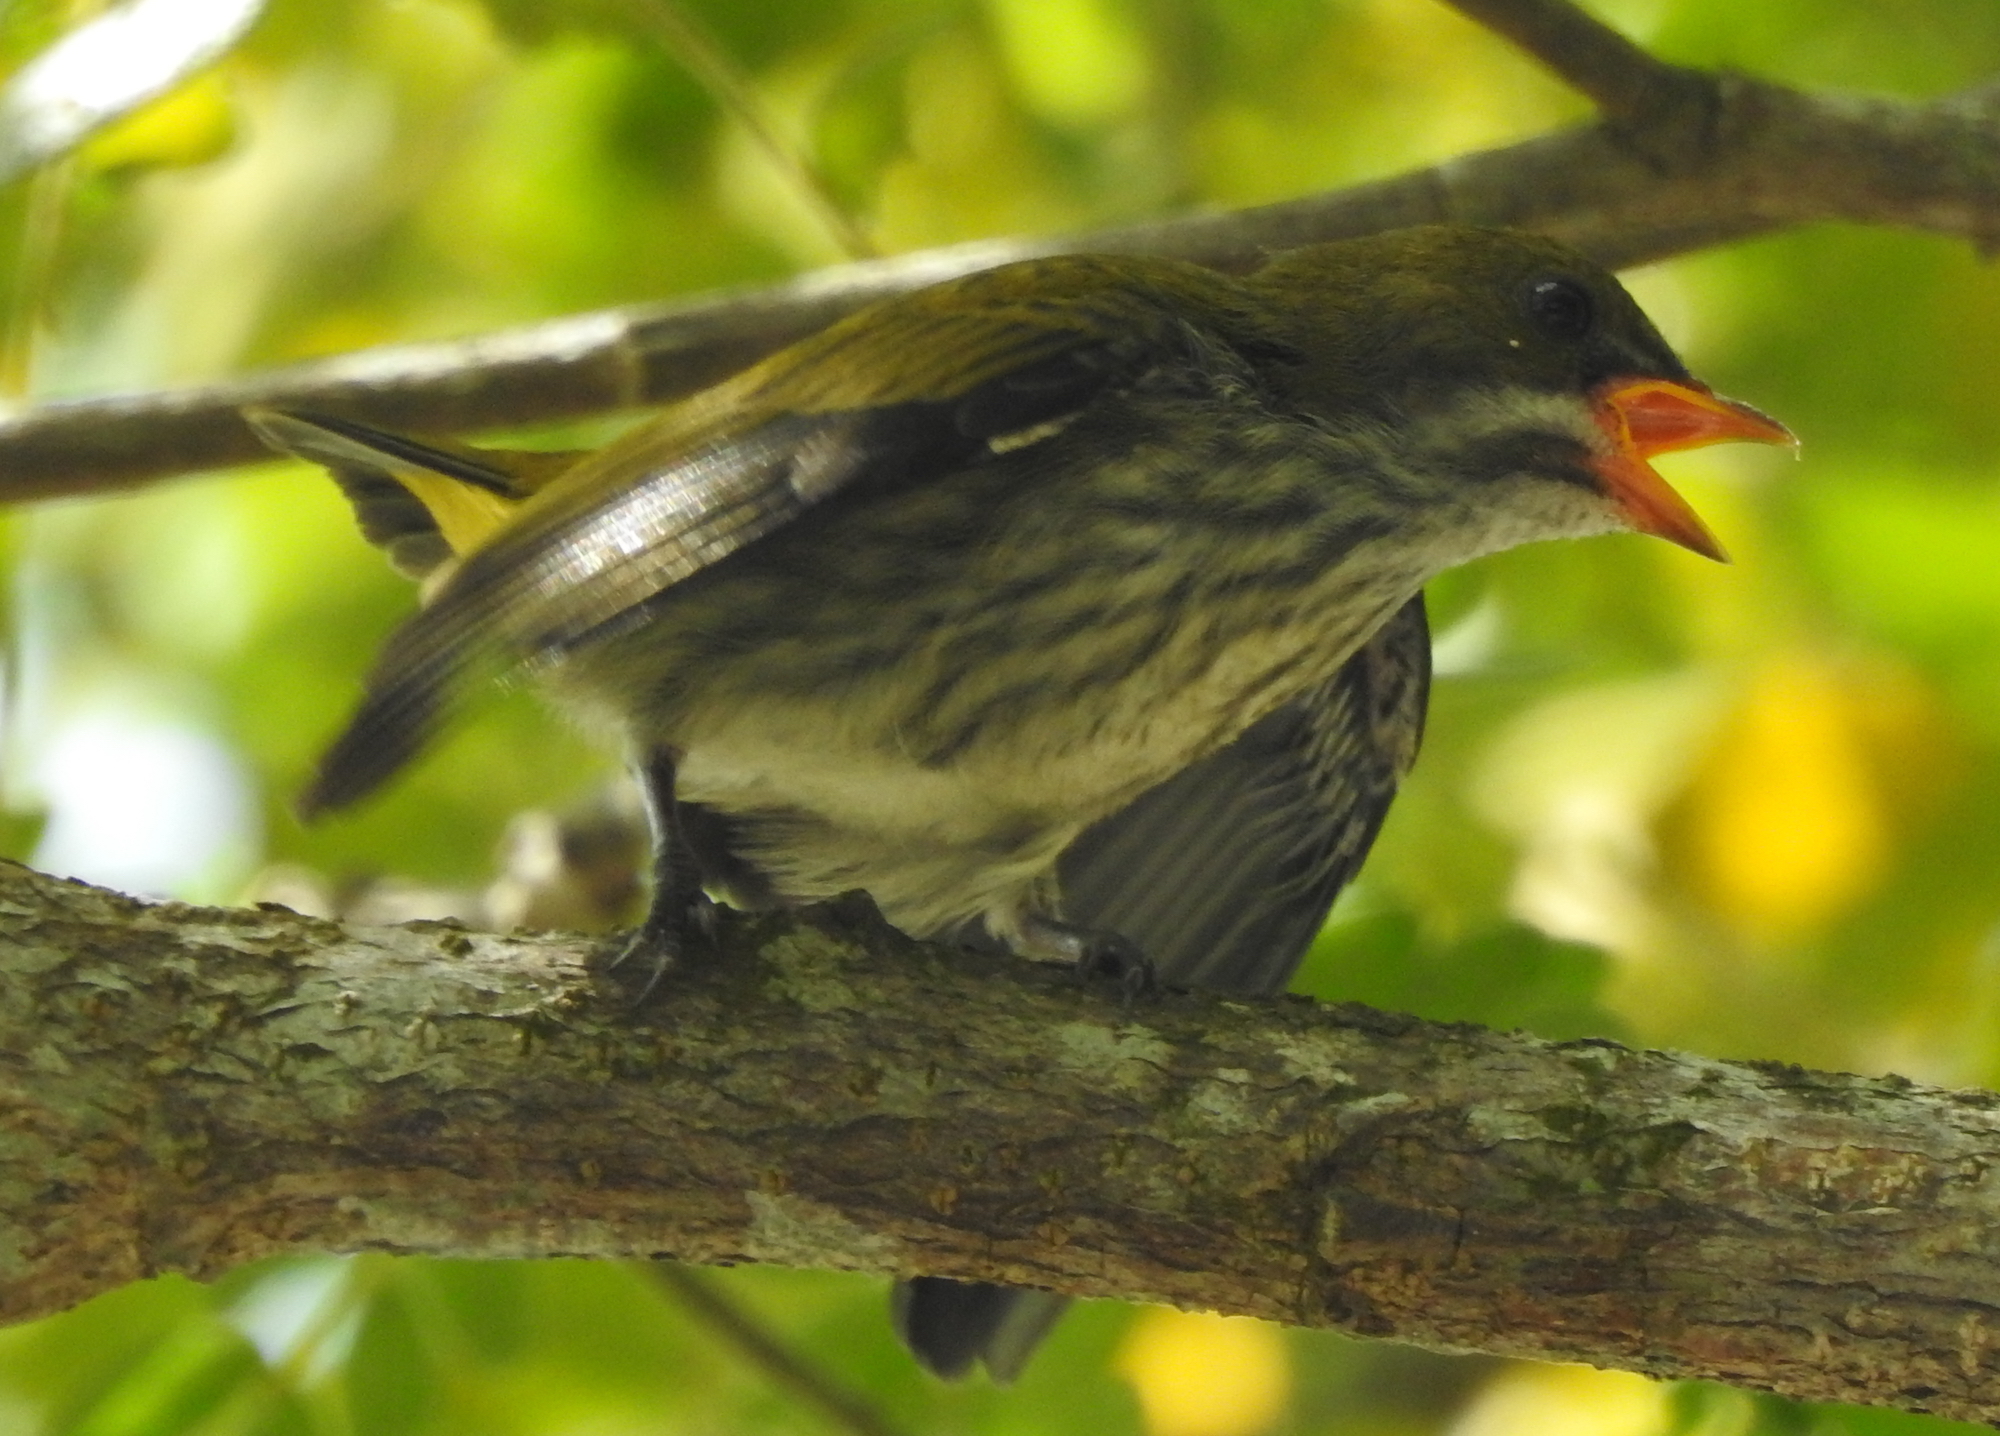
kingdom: Animalia
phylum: Chordata
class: Aves
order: Passeriformes
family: Dicaeidae
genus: Dicaeum
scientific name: Dicaeum chrysorrheum
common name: Yellow-vented flowerpecker
